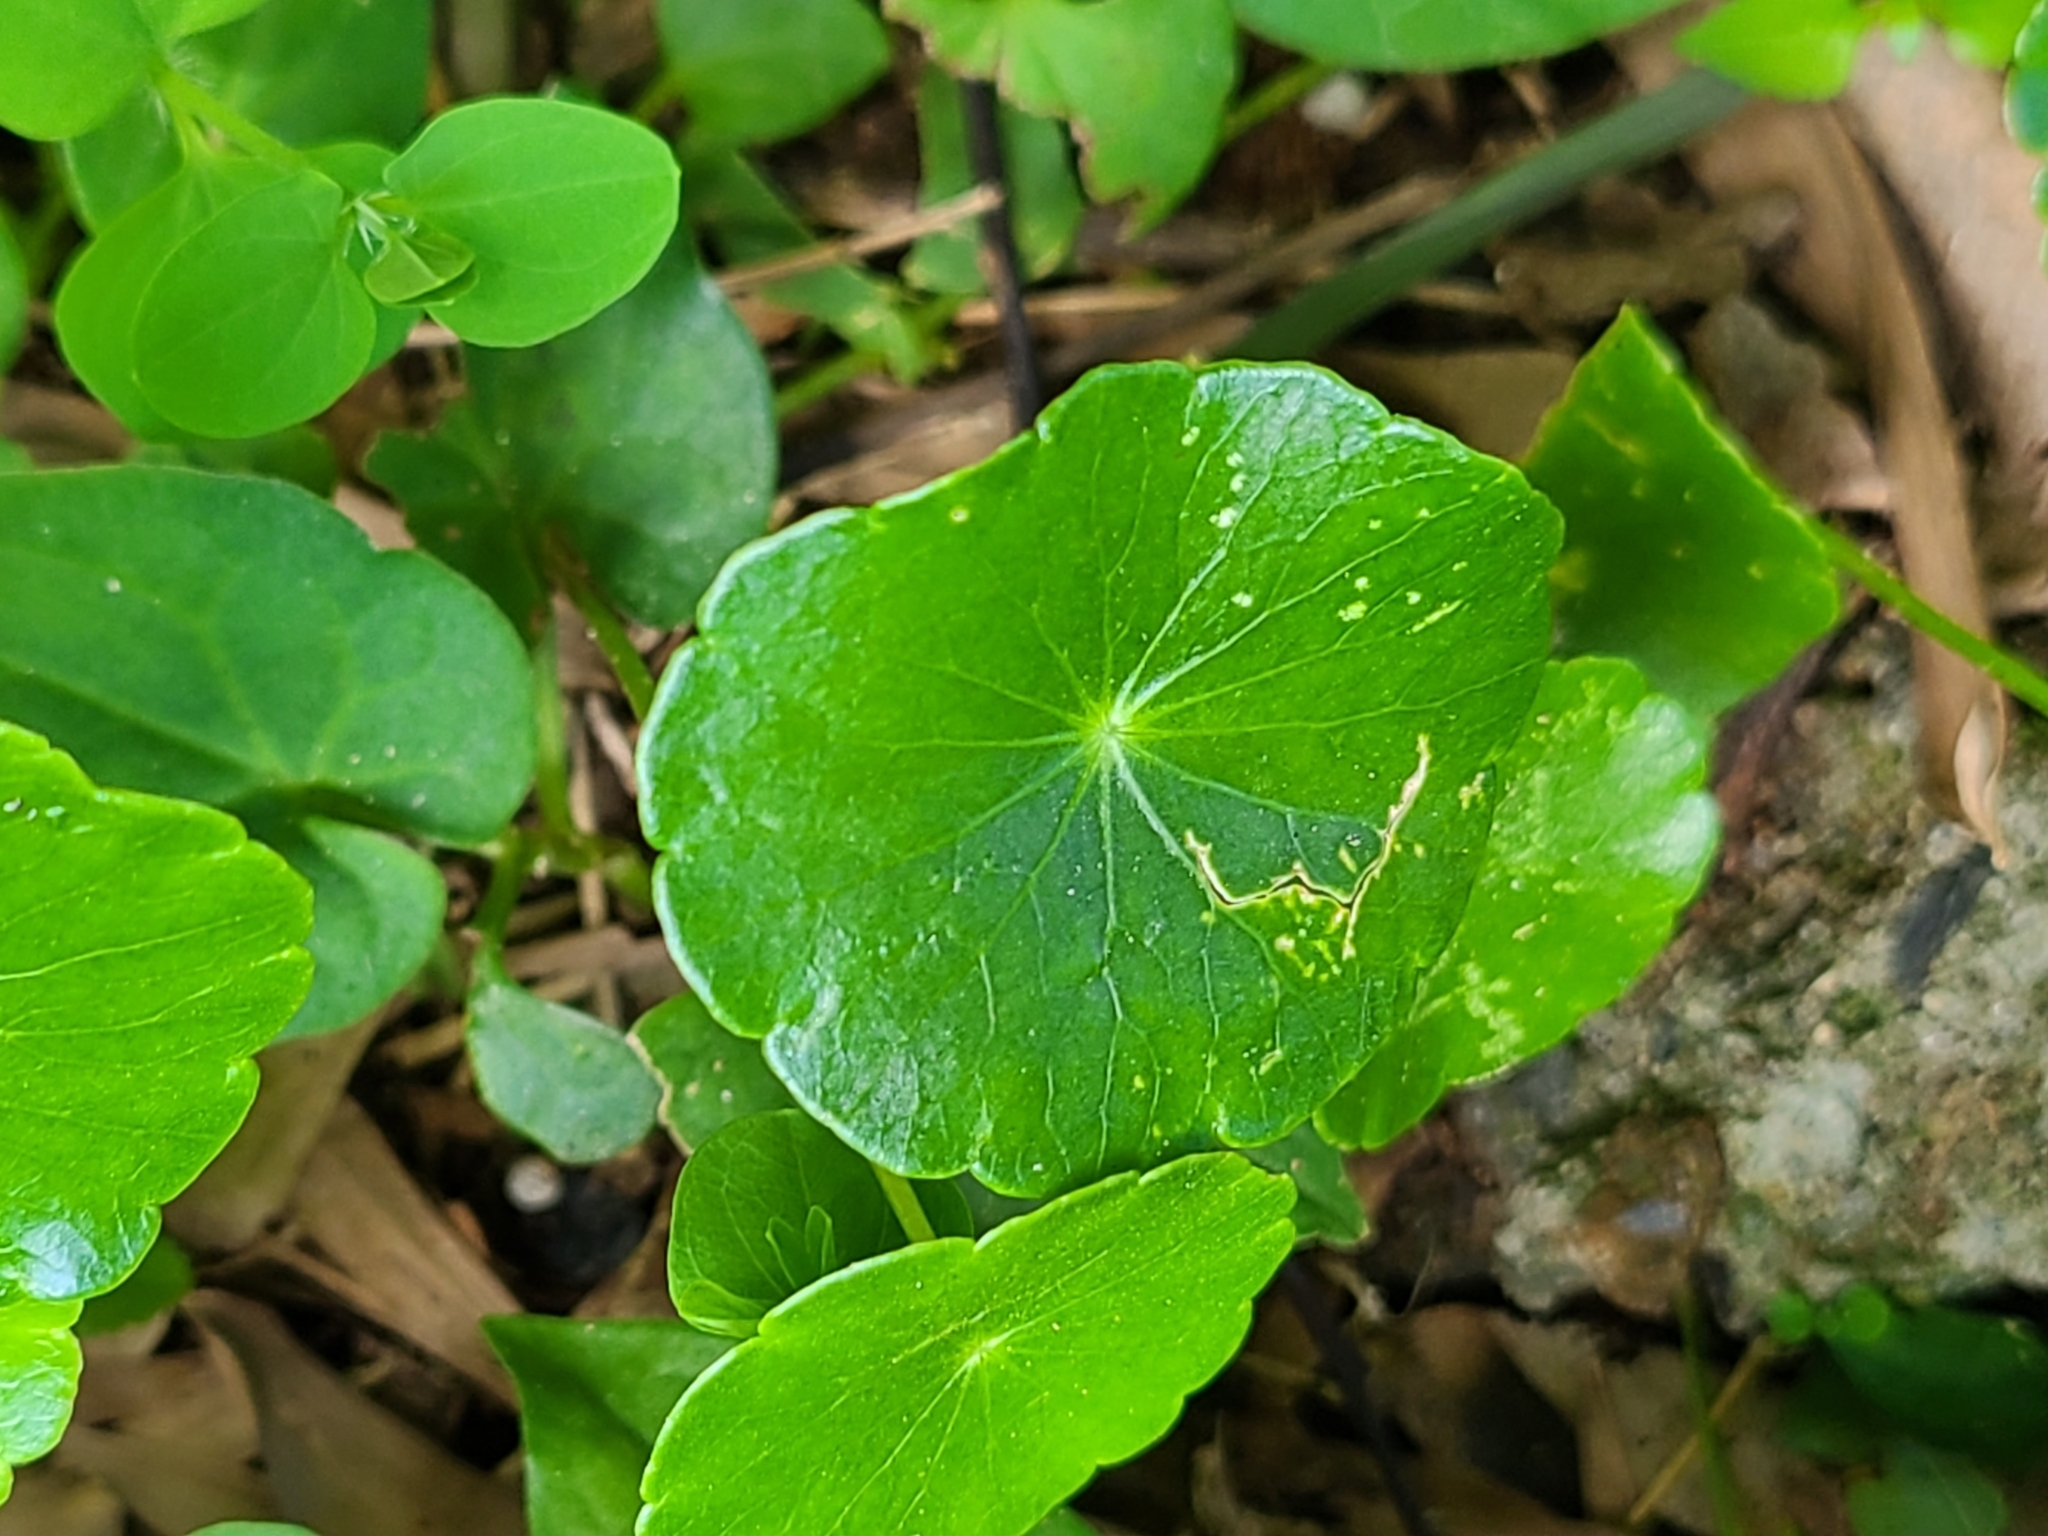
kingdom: Plantae
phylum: Tracheophyta
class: Magnoliopsida
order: Apiales
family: Araliaceae
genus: Hydrocotyle
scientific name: Hydrocotyle verticillata
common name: Whorled marshpennywort
